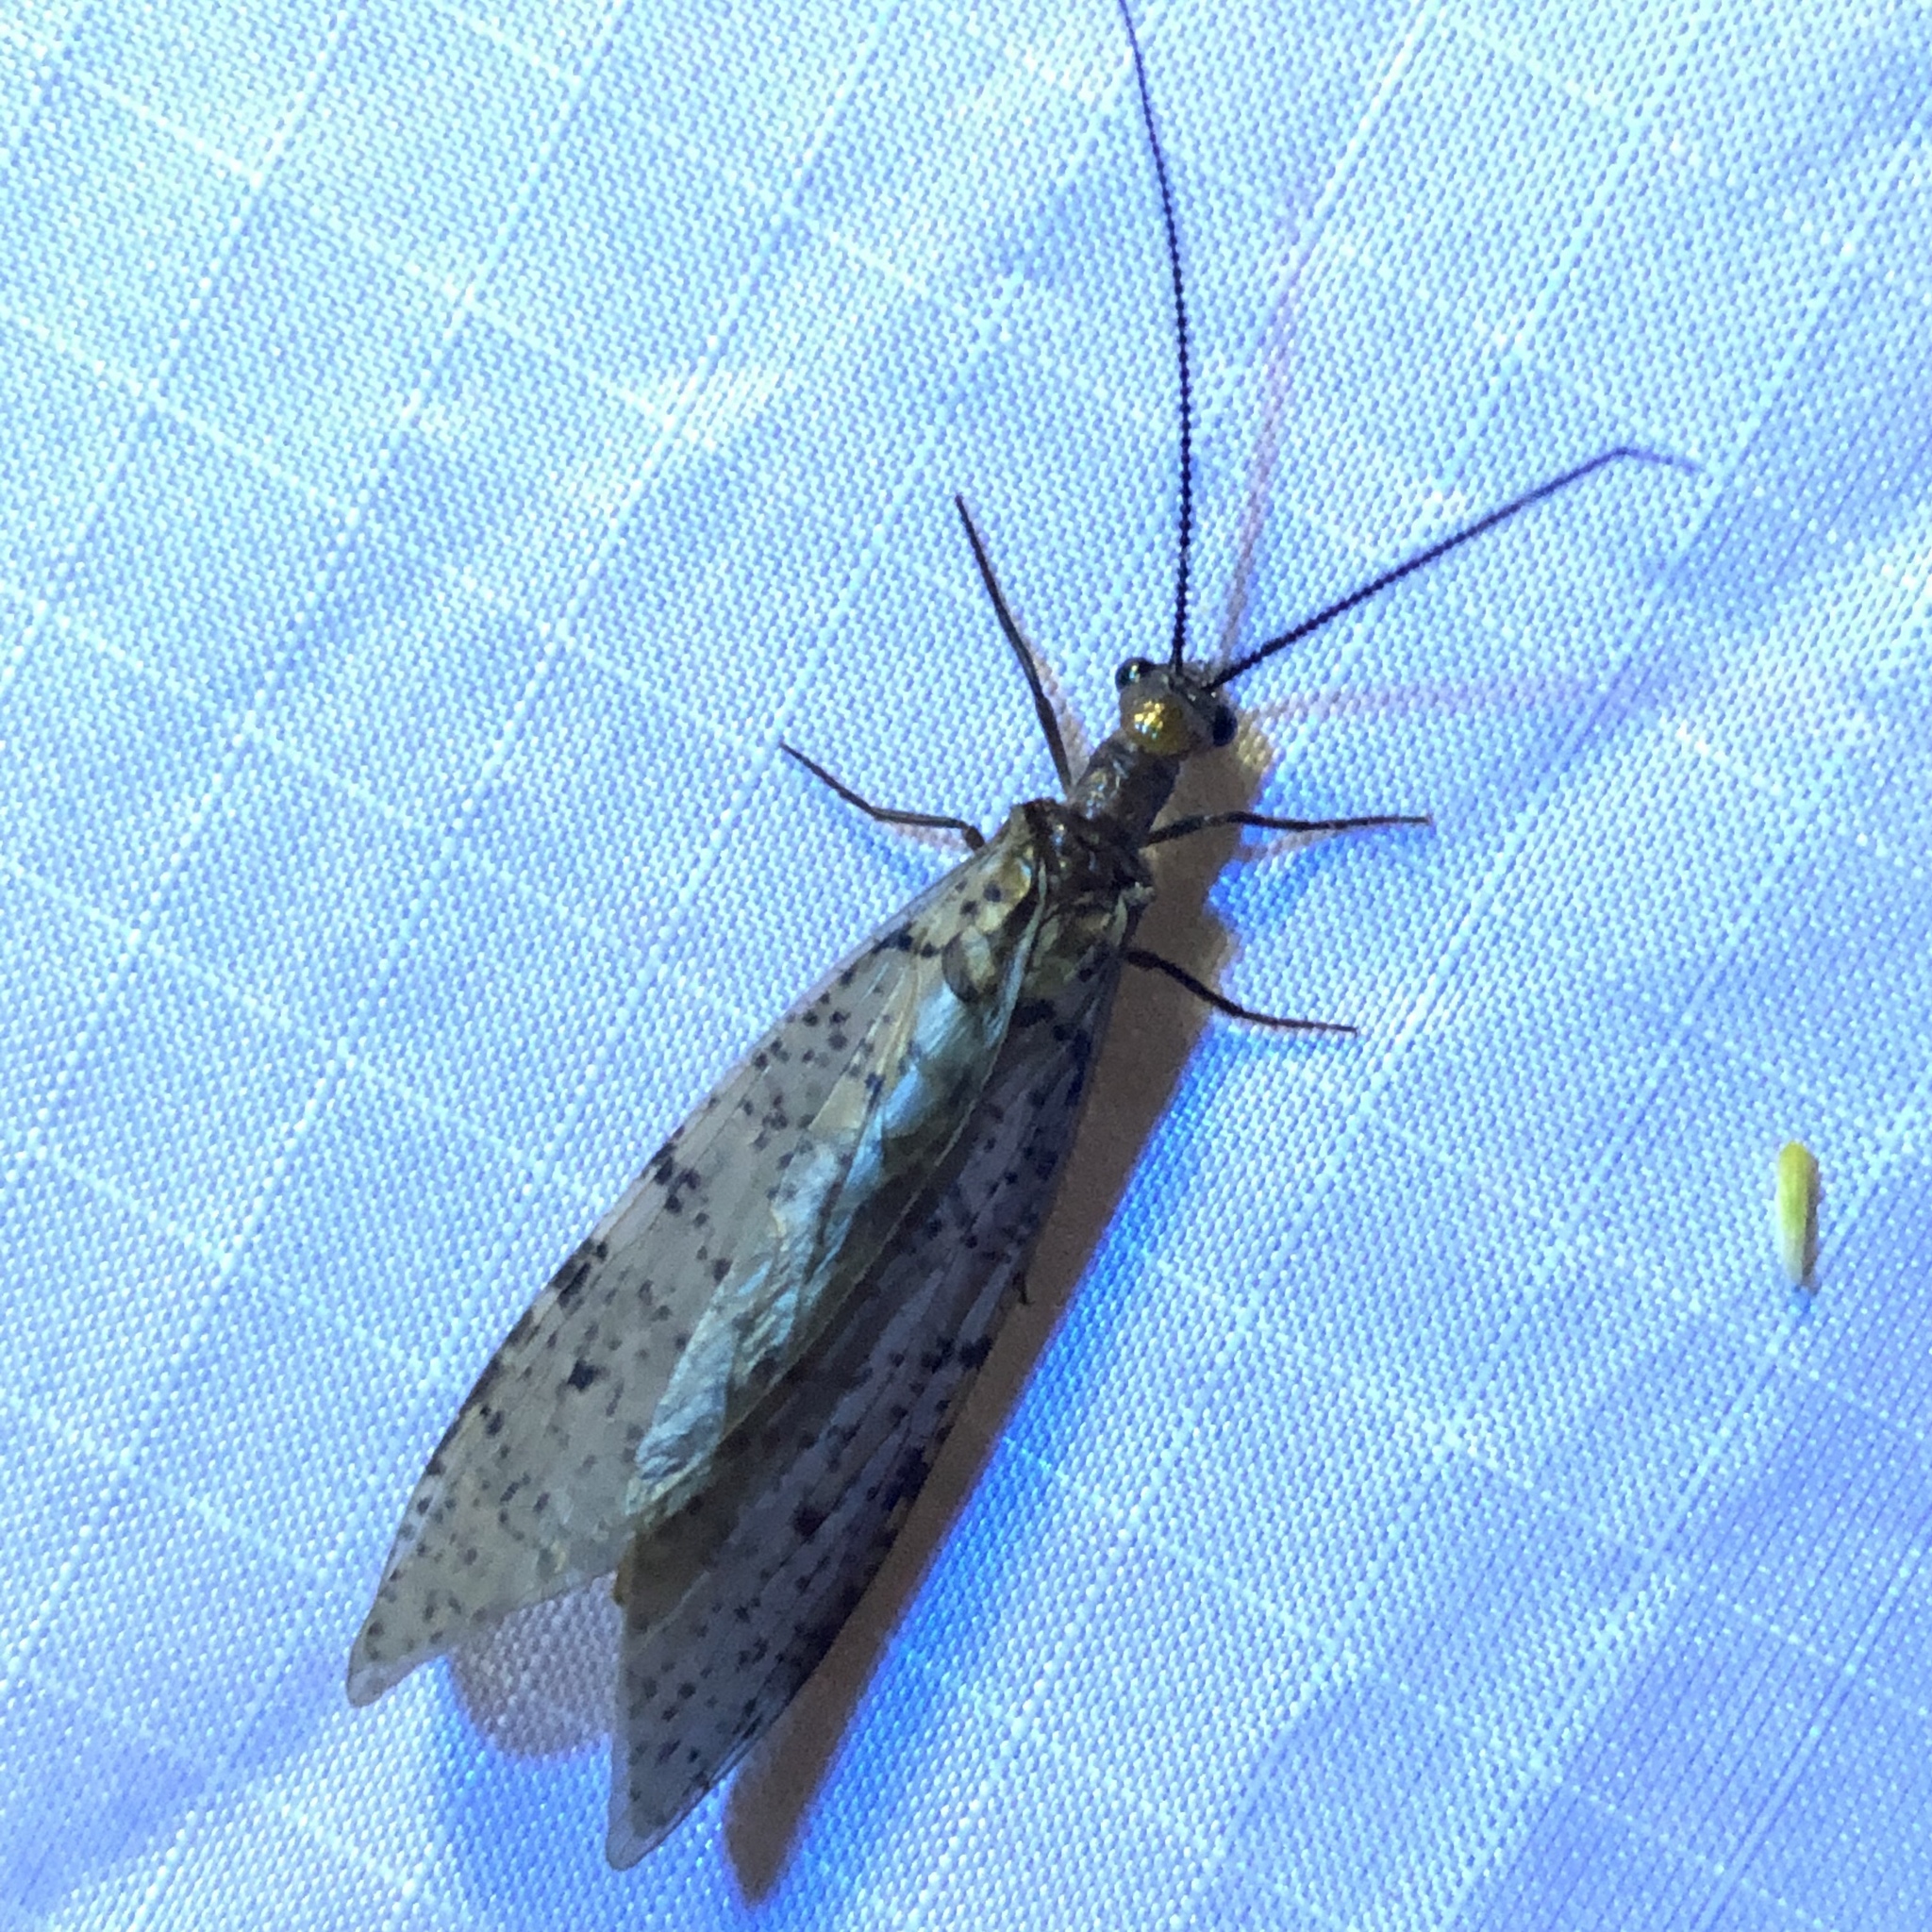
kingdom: Animalia
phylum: Arthropoda
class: Insecta
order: Megaloptera
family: Corydalidae
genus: Neohermes
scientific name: Neohermes concolor
